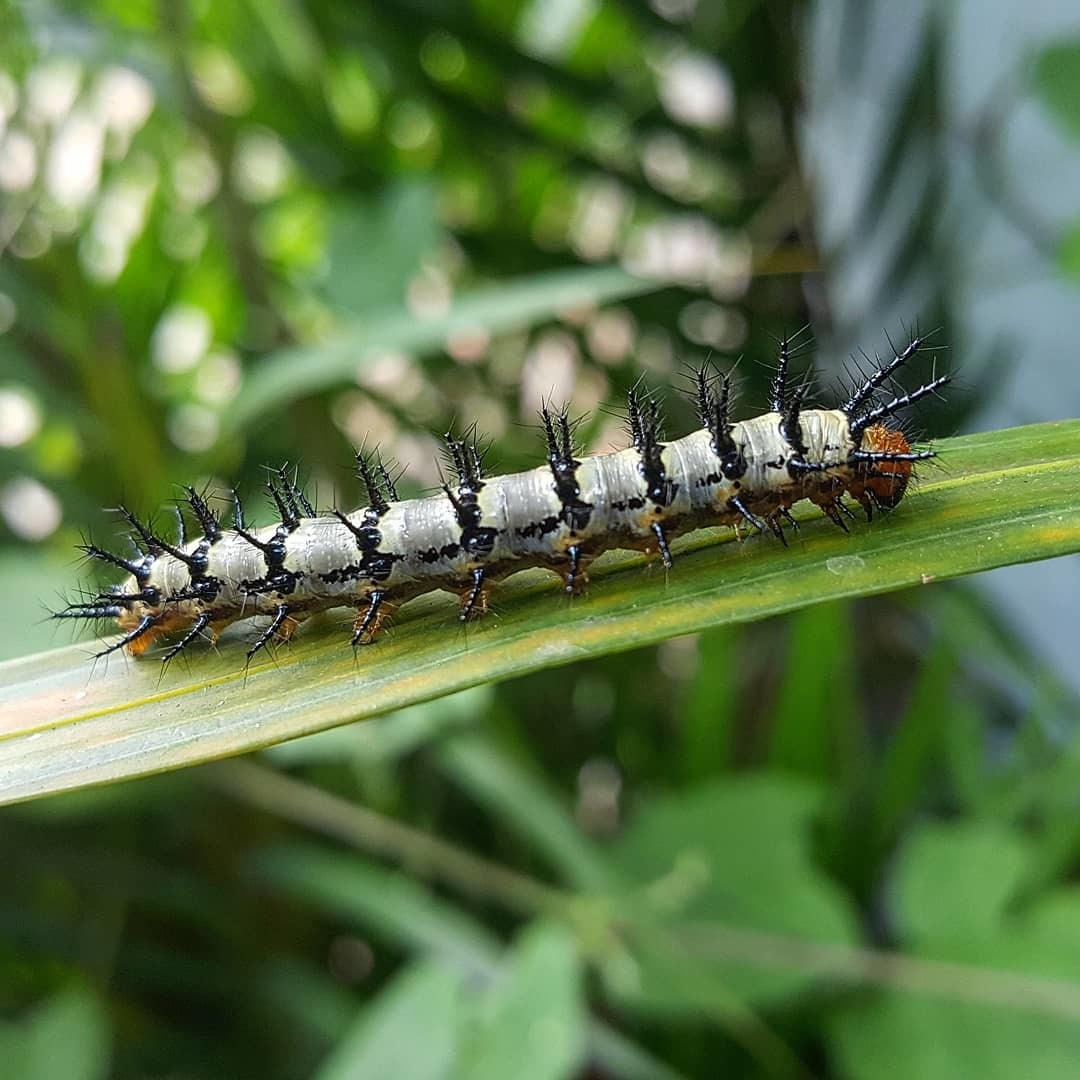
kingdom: Animalia
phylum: Arthropoda
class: Insecta
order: Lepidoptera
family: Nymphalidae
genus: Chlosyne
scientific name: Chlosyne janais
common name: Crimson patch
